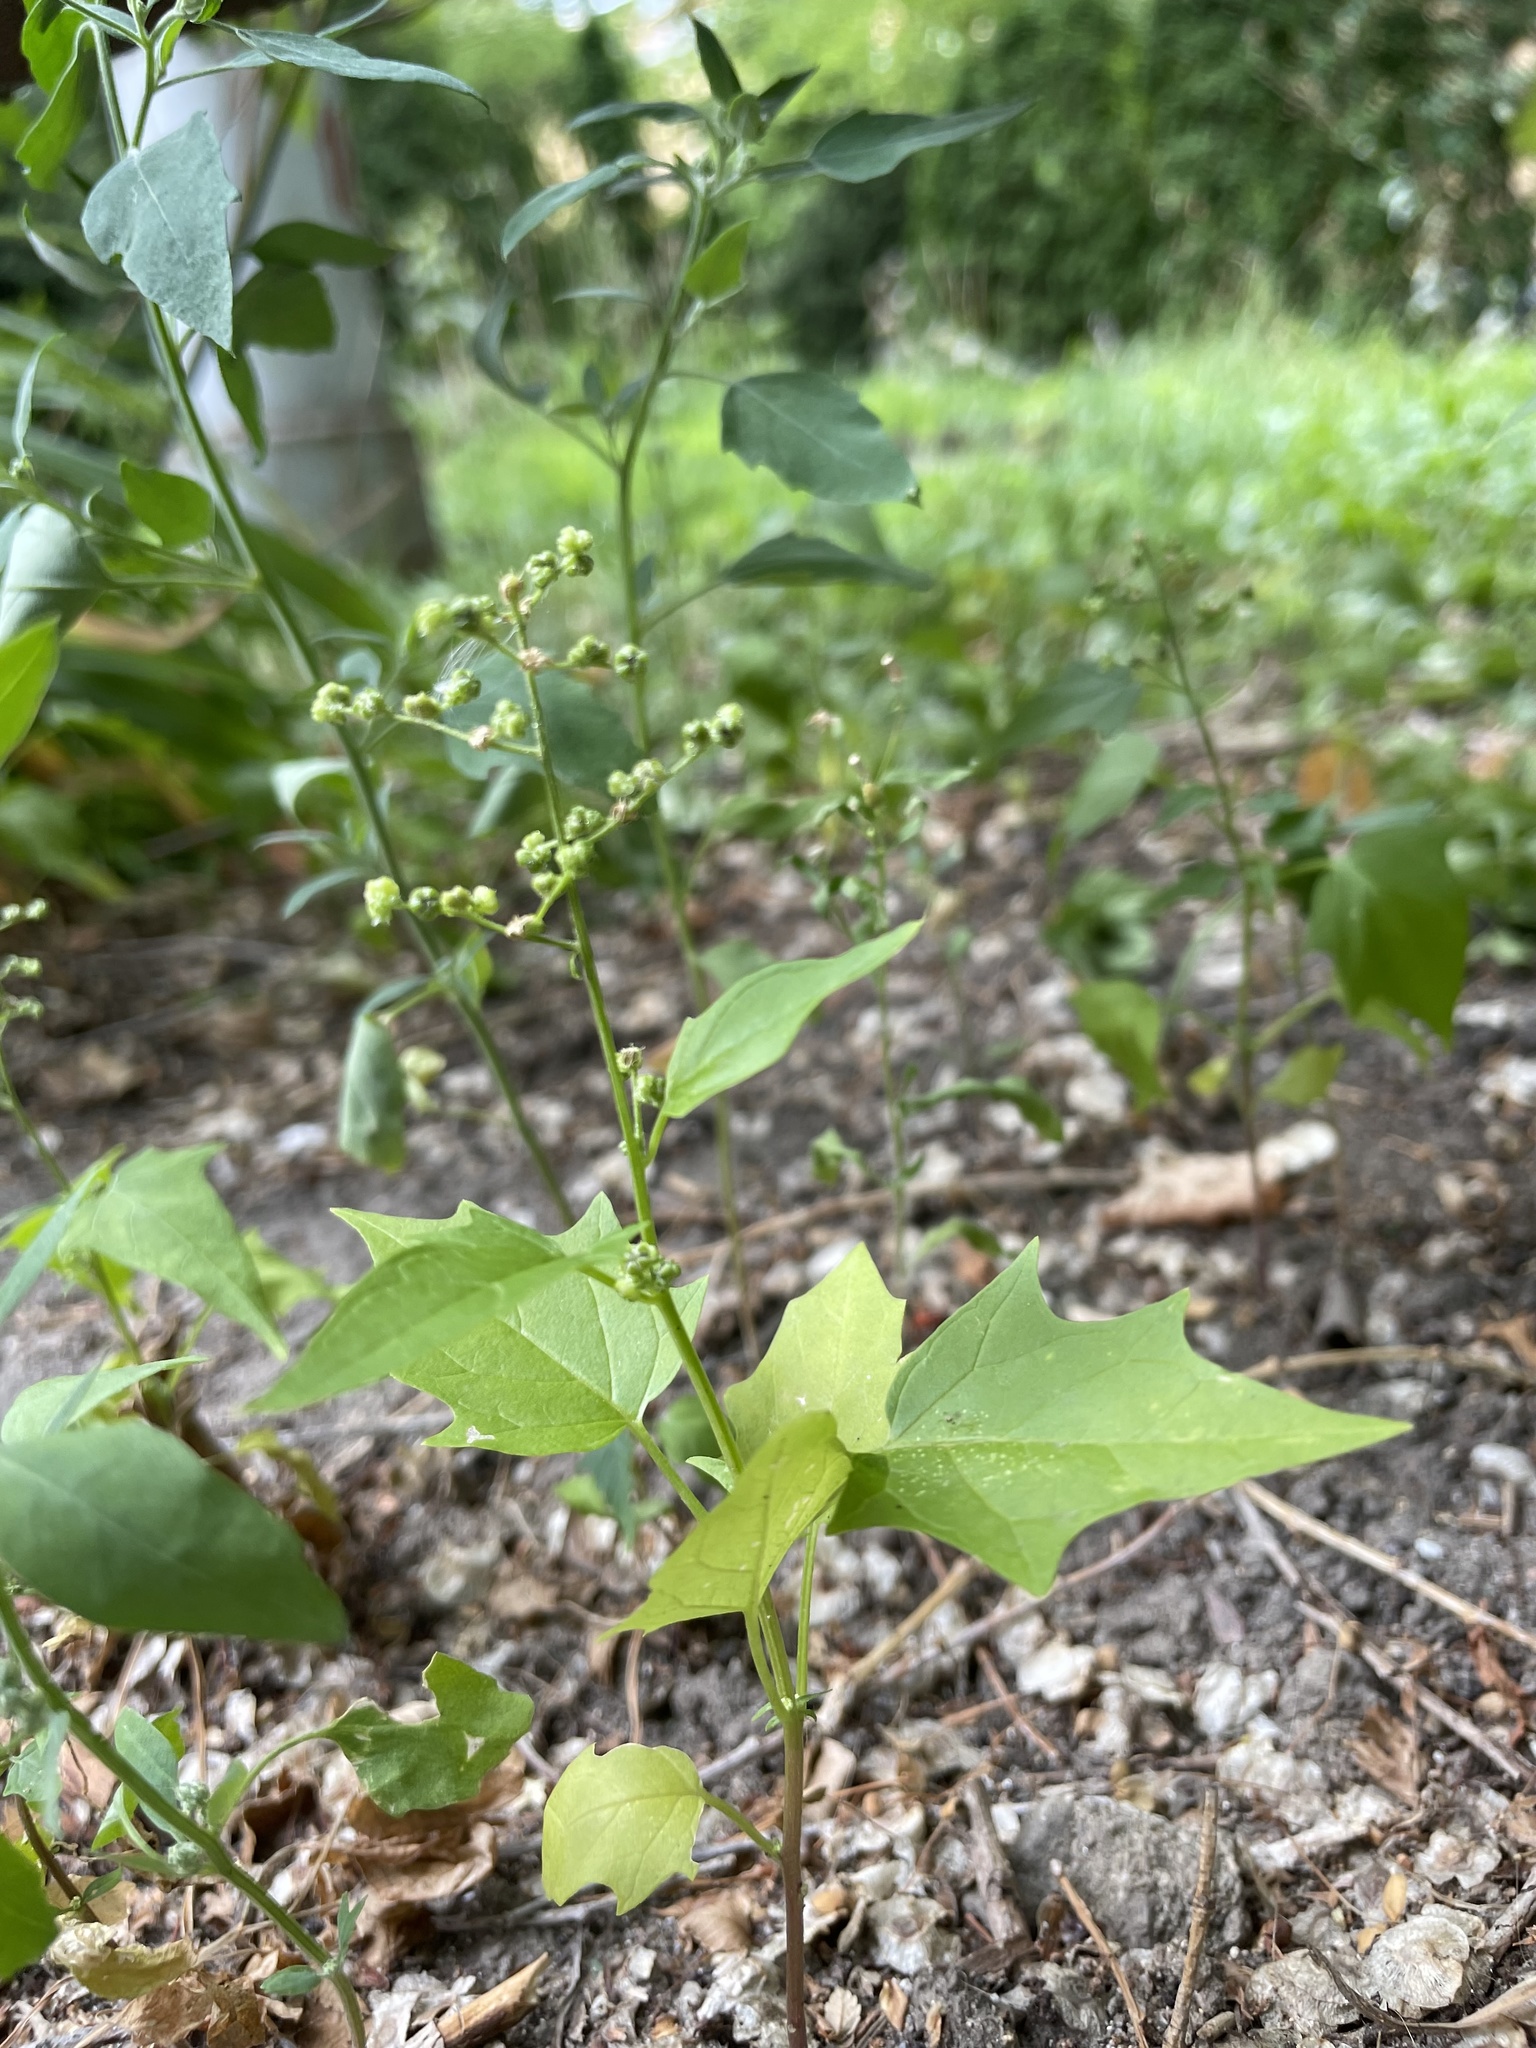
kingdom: Plantae
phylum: Tracheophyta
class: Magnoliopsida
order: Caryophyllales
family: Amaranthaceae
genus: Chenopodiastrum
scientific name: Chenopodiastrum hybridum
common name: Mapleleaf goosefoot
